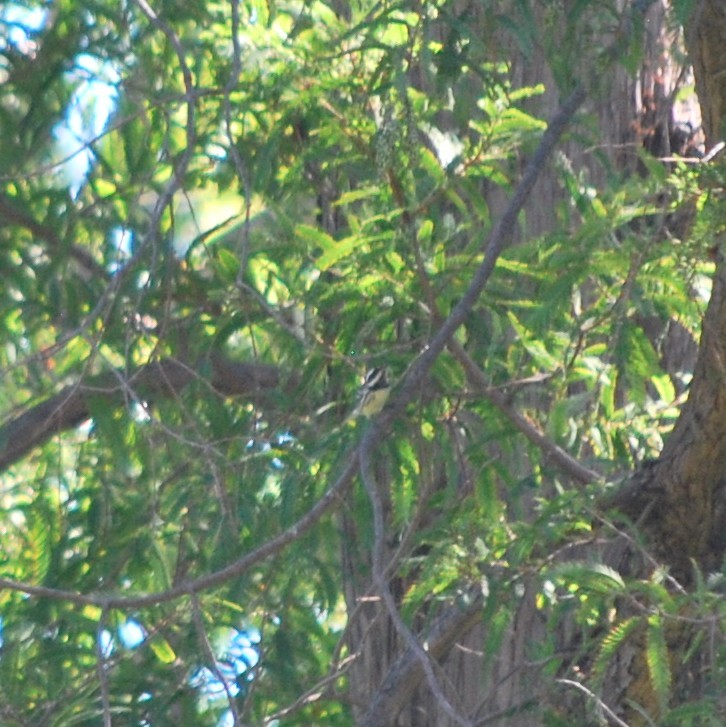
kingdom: Animalia
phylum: Chordata
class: Aves
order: Passeriformes
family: Parulidae
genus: Setophaga
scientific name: Setophaga nigrescens
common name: Black-throated gray warbler
